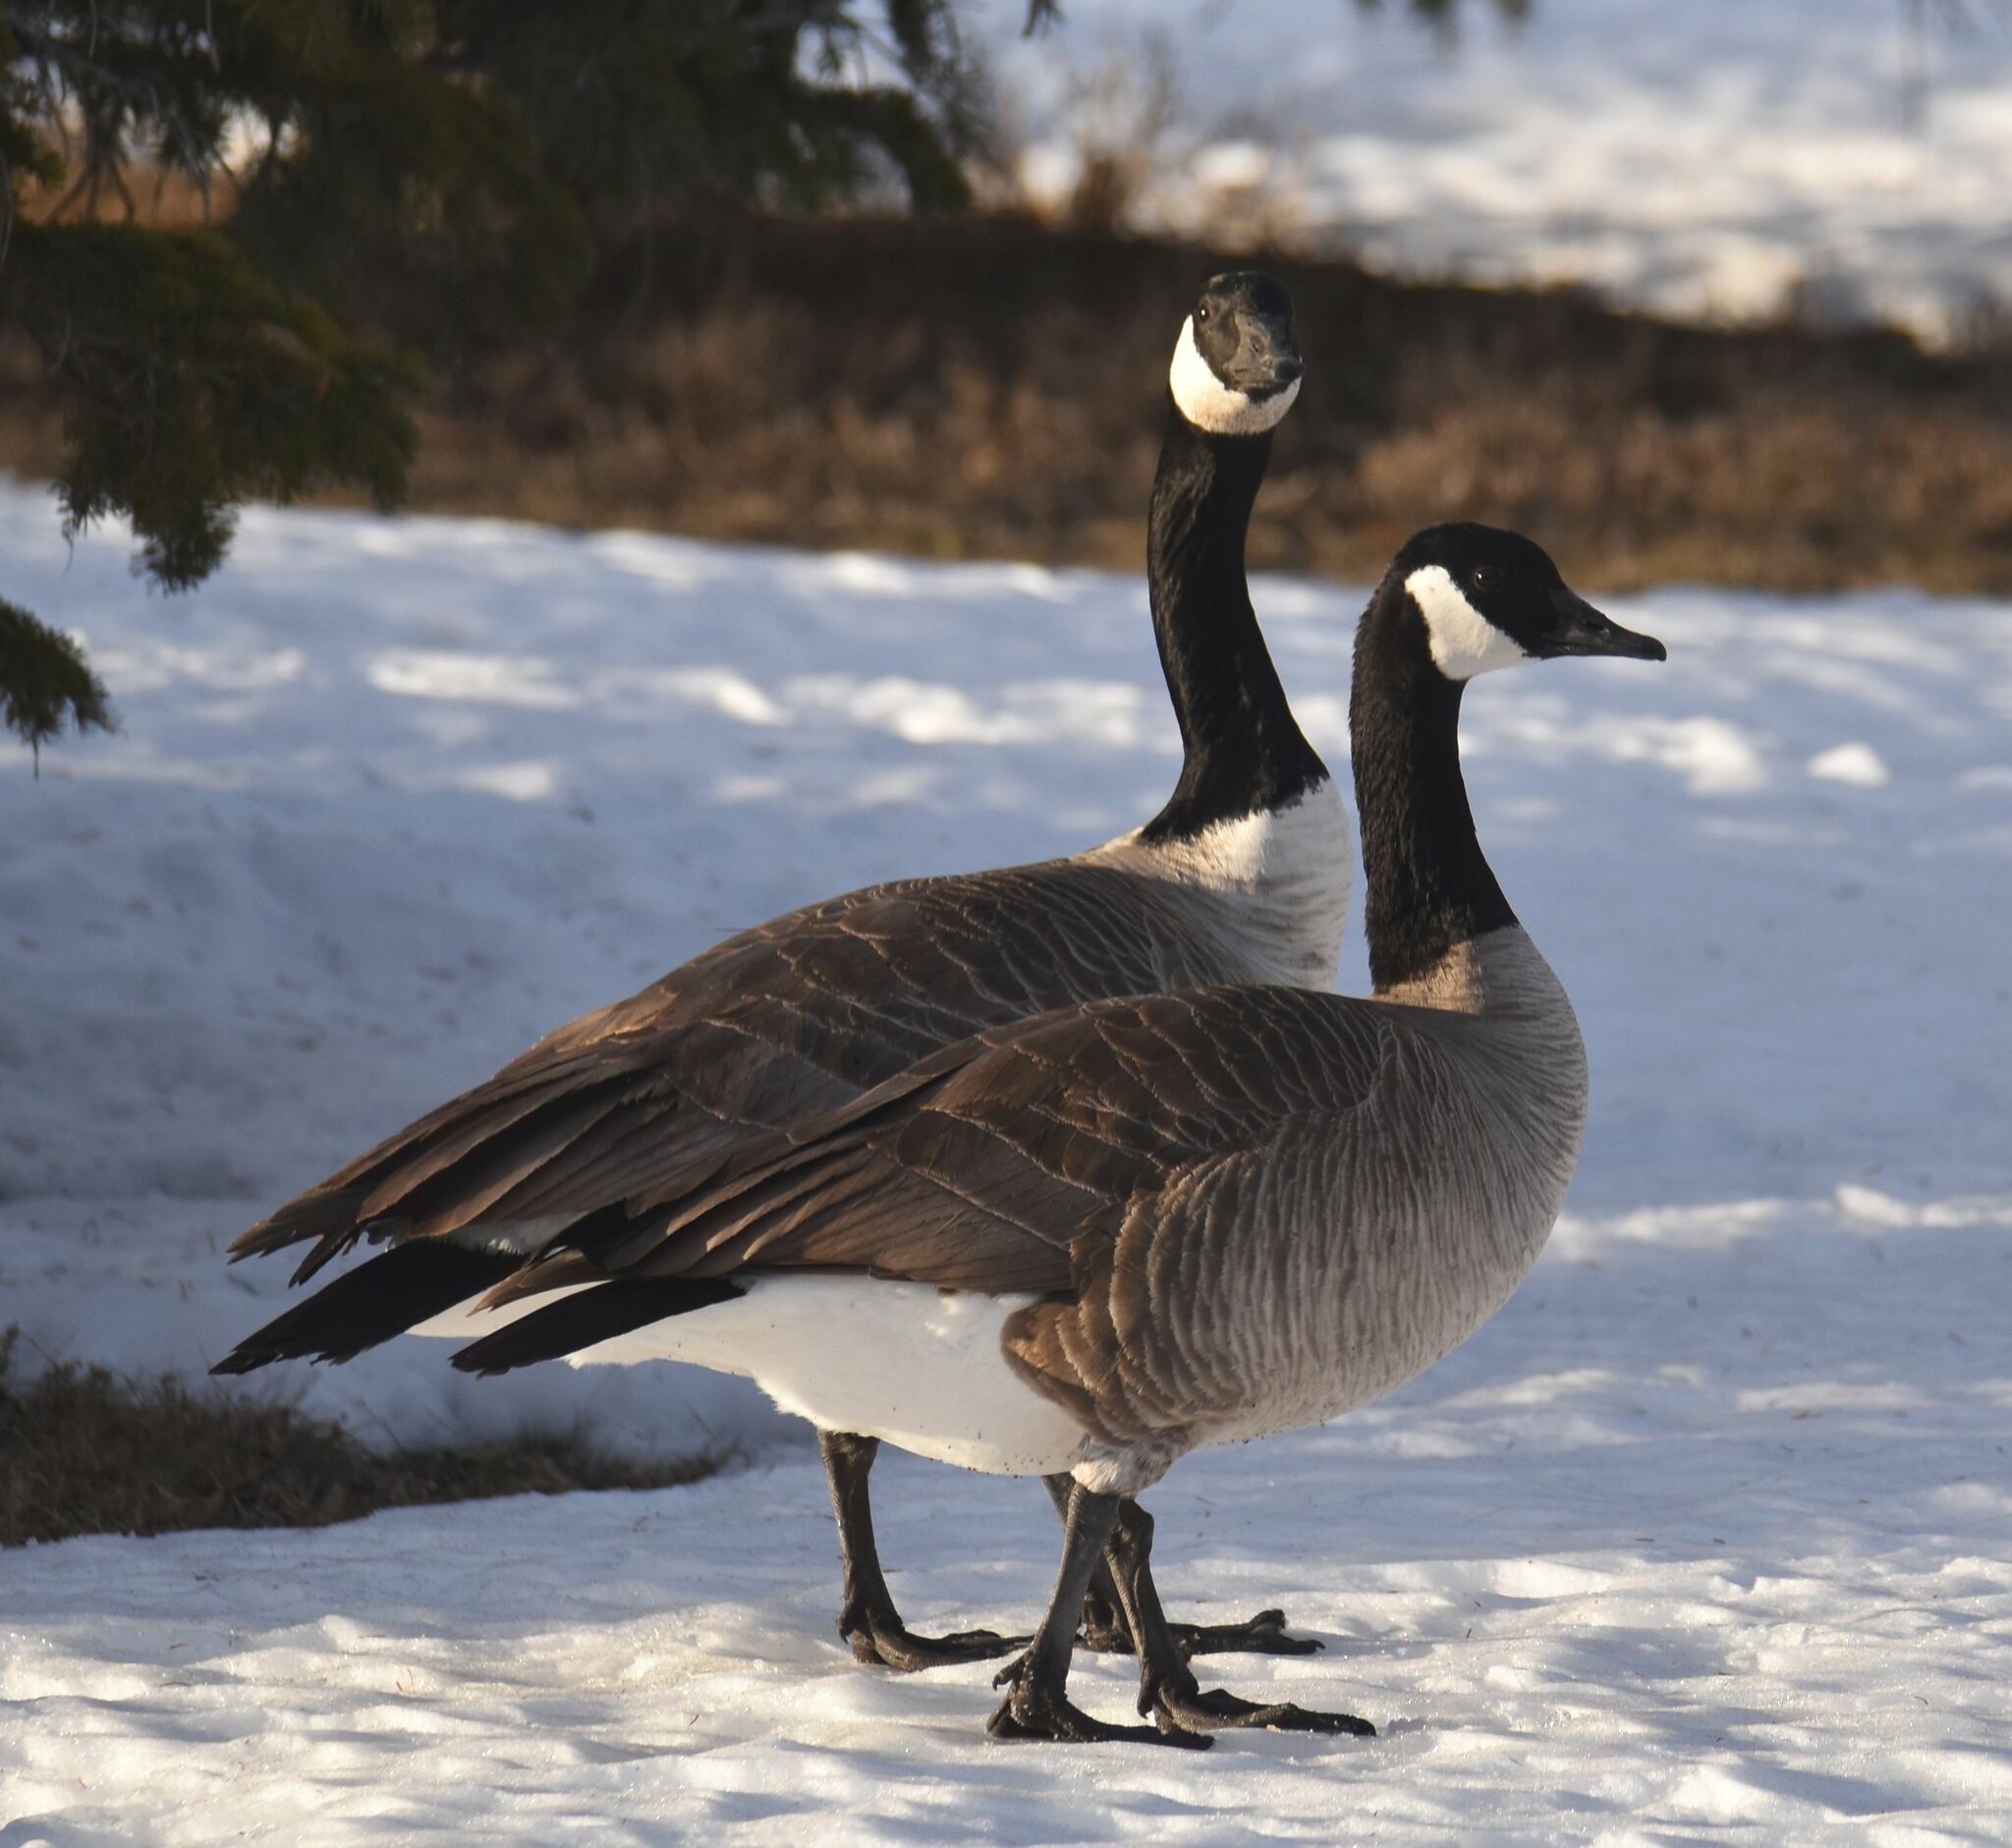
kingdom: Animalia
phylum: Chordata
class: Aves
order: Anseriformes
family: Anatidae
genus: Branta
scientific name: Branta canadensis
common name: Canada goose
